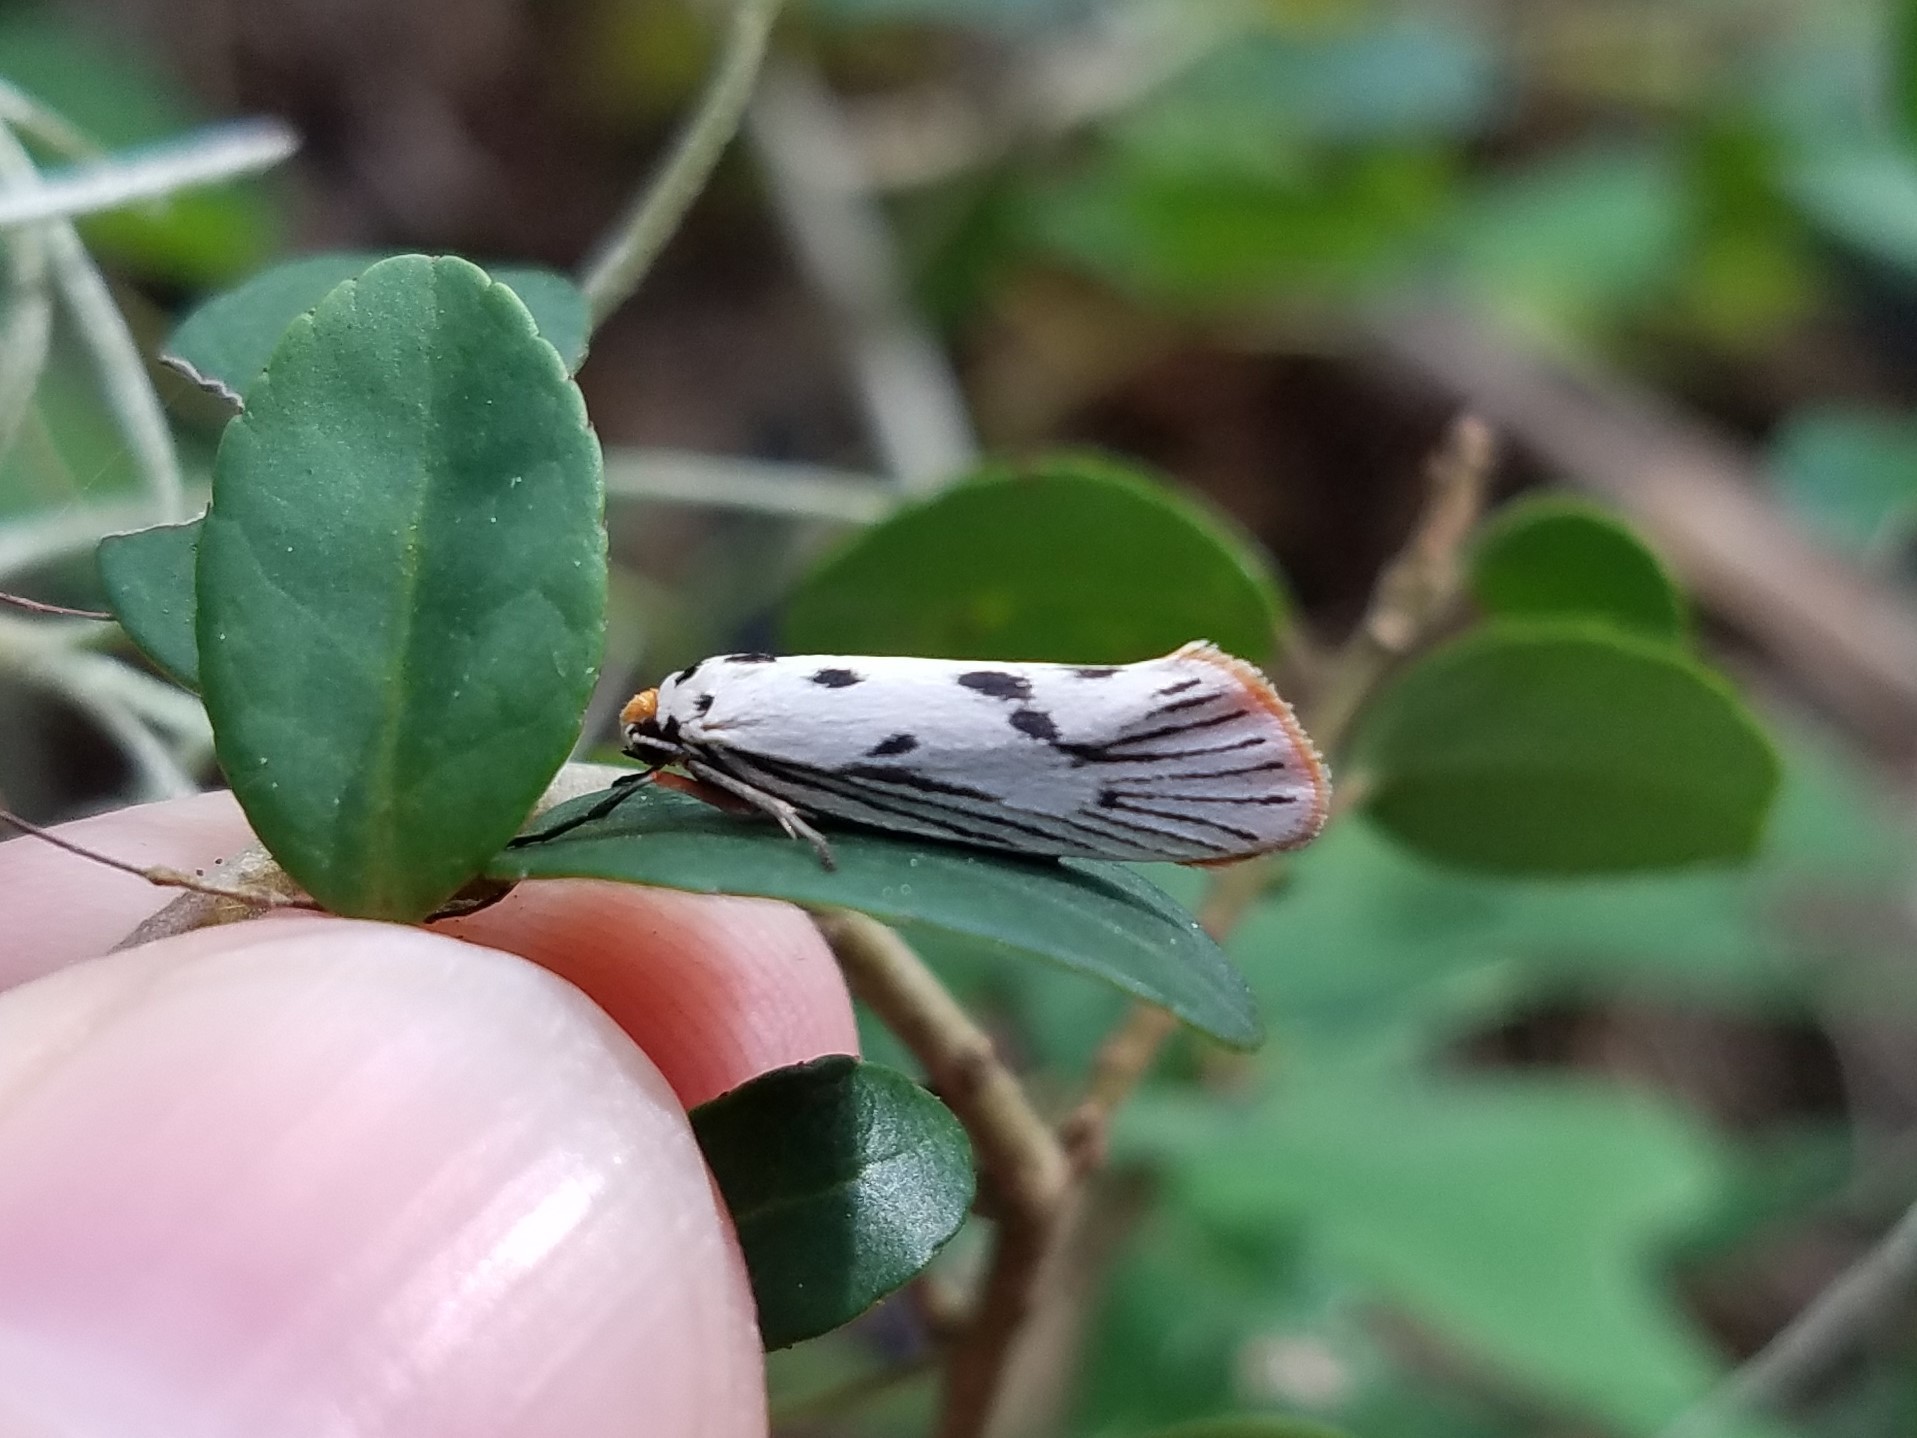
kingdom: Animalia
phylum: Arthropoda
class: Insecta
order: Lepidoptera
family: Lacturidae
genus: Lactura
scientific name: Lactura
